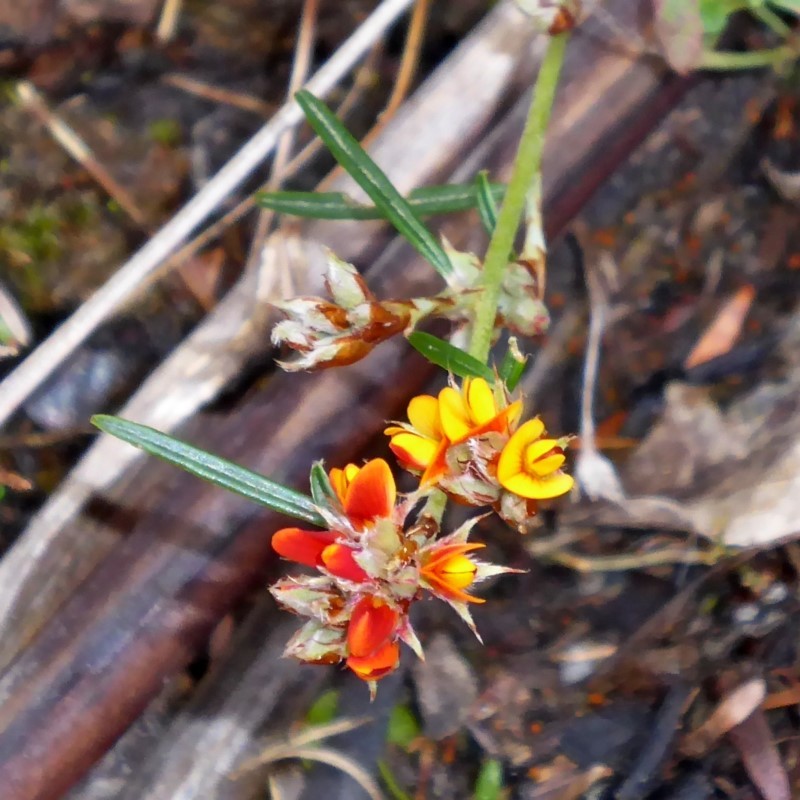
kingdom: Plantae
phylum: Tracheophyta
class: Magnoliopsida
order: Fabales
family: Fabaceae
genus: Pultenaea
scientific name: Pultenaea parrisiae
